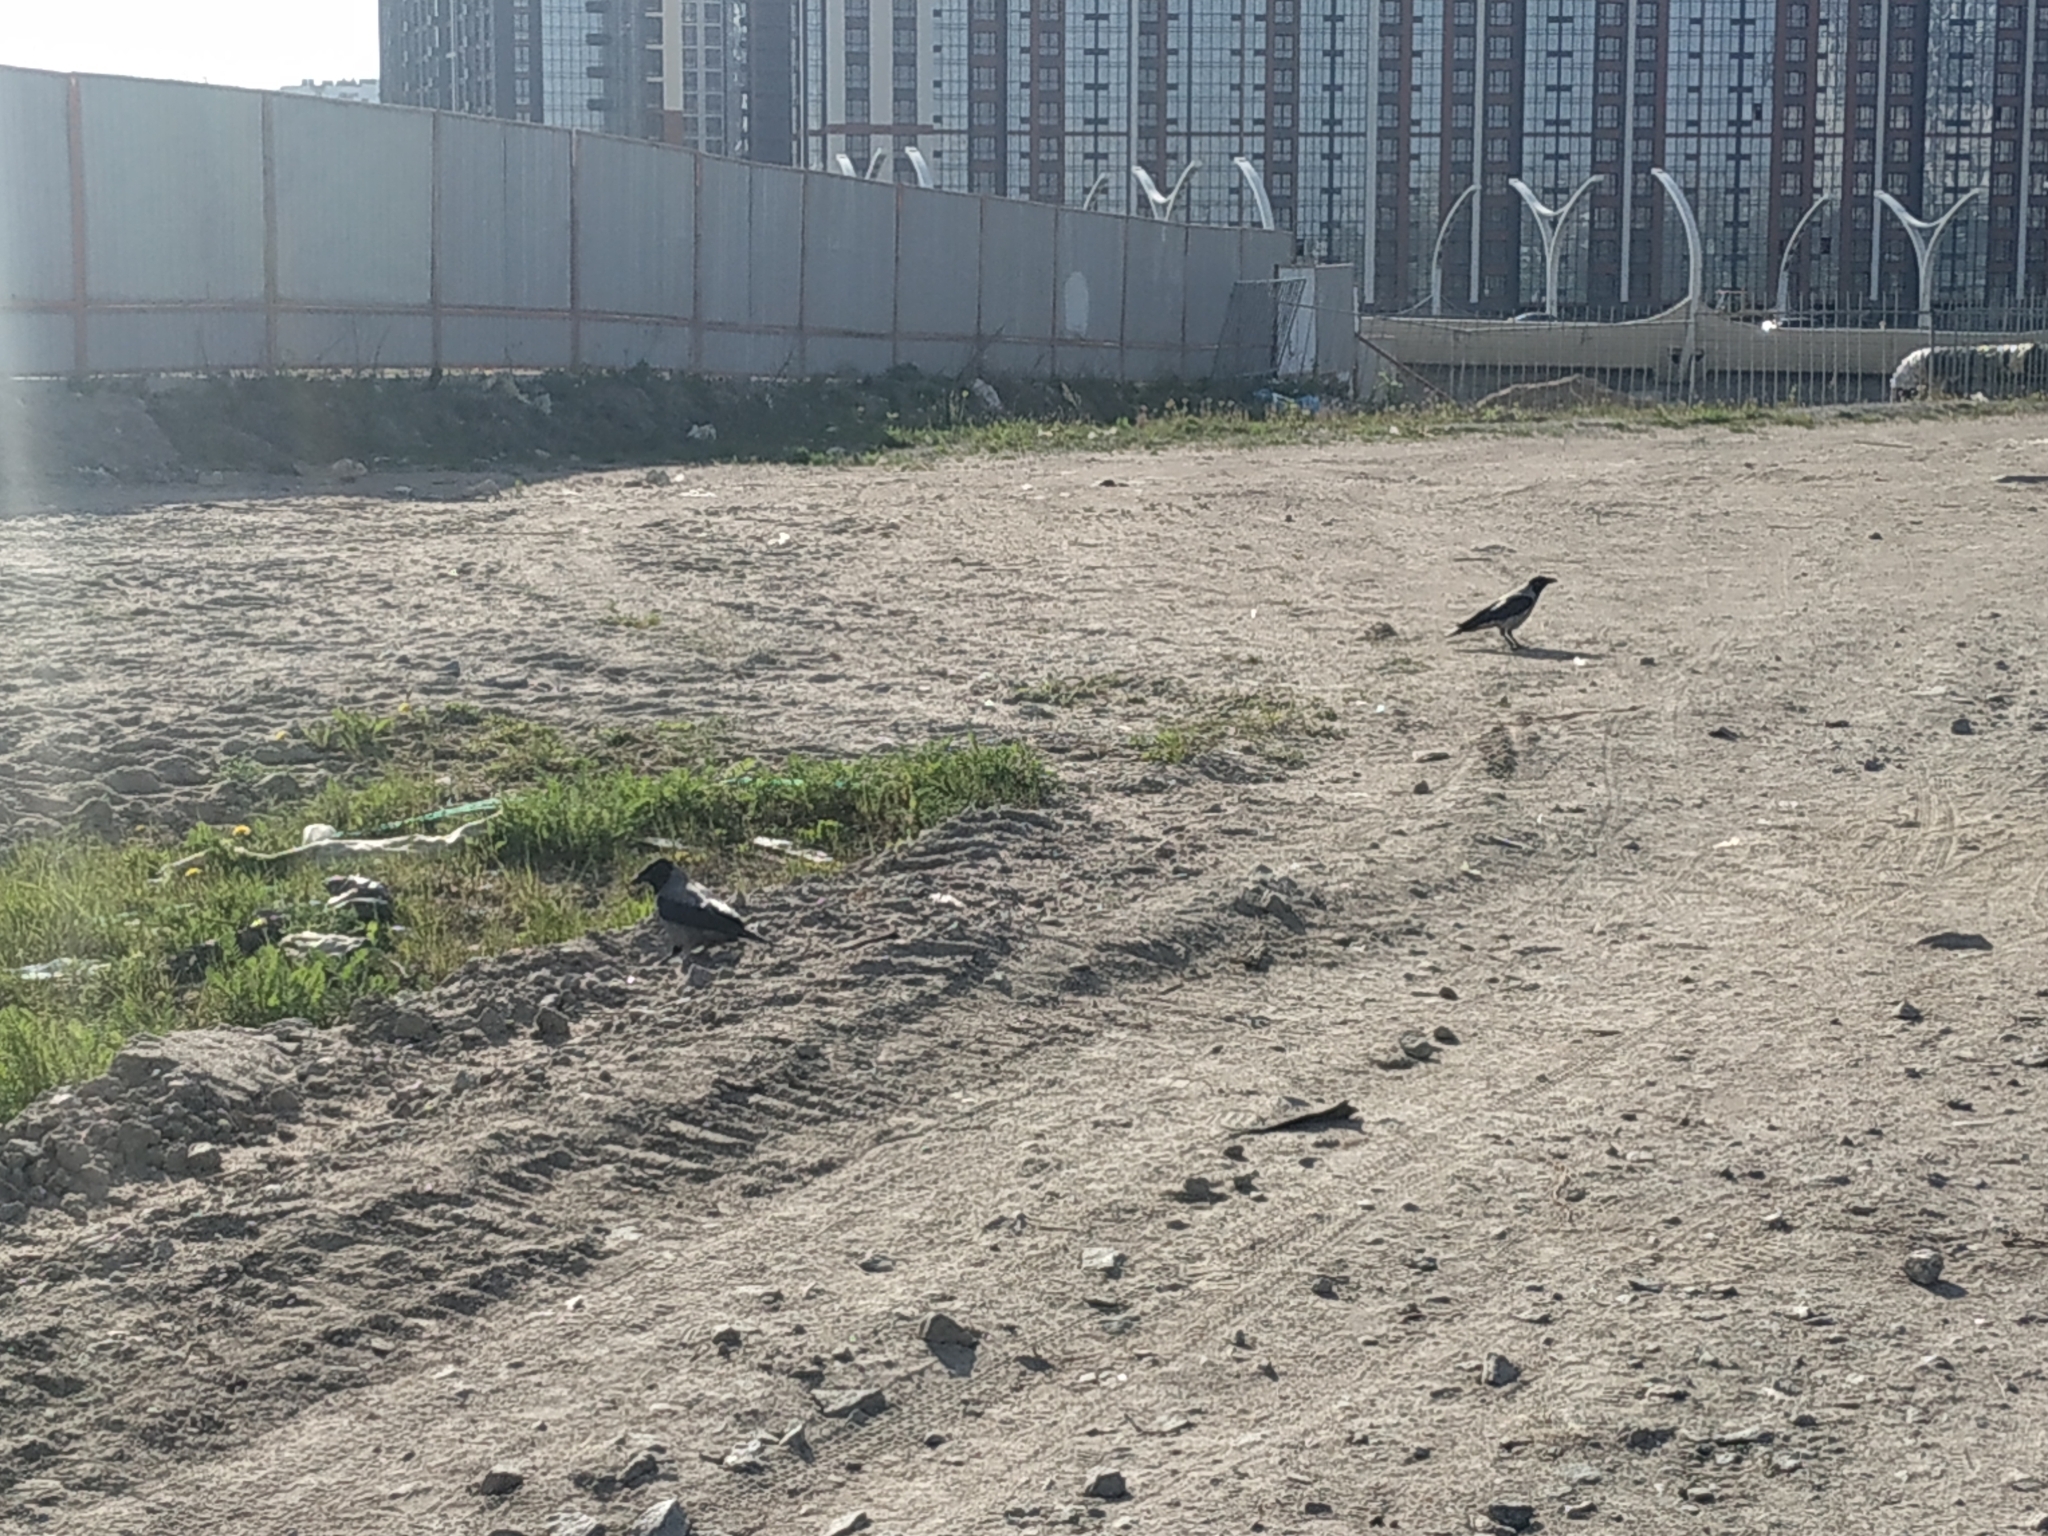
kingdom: Animalia
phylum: Chordata
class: Aves
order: Passeriformes
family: Corvidae
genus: Corvus
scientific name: Corvus cornix
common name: Hooded crow
